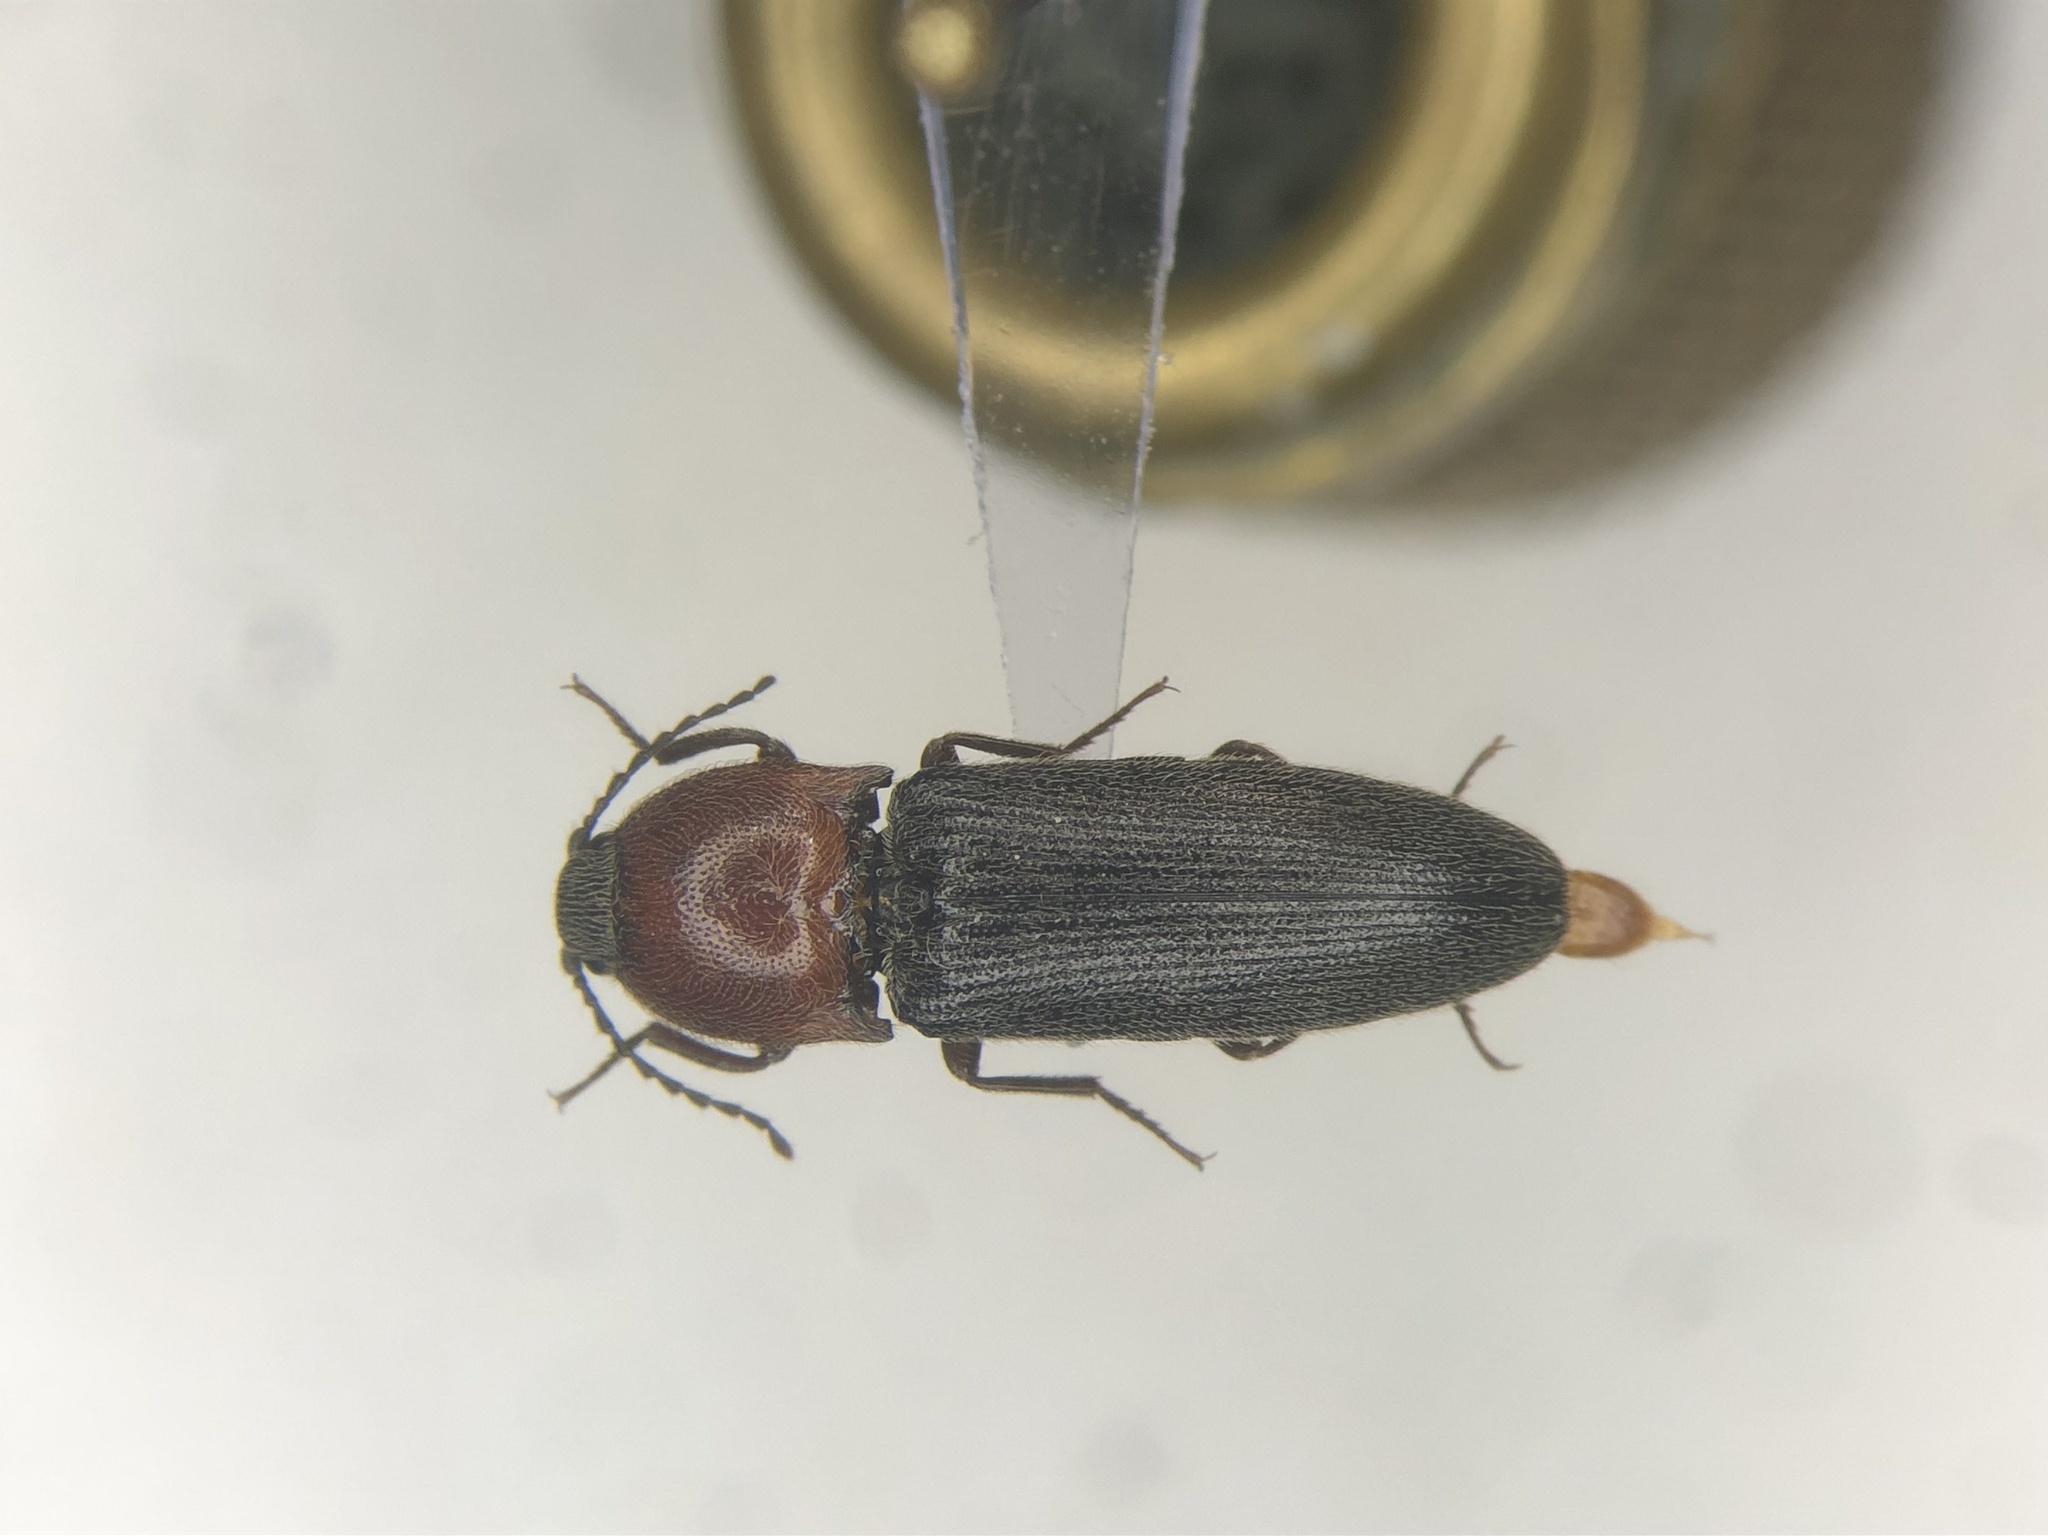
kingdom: Animalia
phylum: Arthropoda
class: Insecta
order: Coleoptera
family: Elateridae
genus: Melanotus
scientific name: Melanotus leonardi
